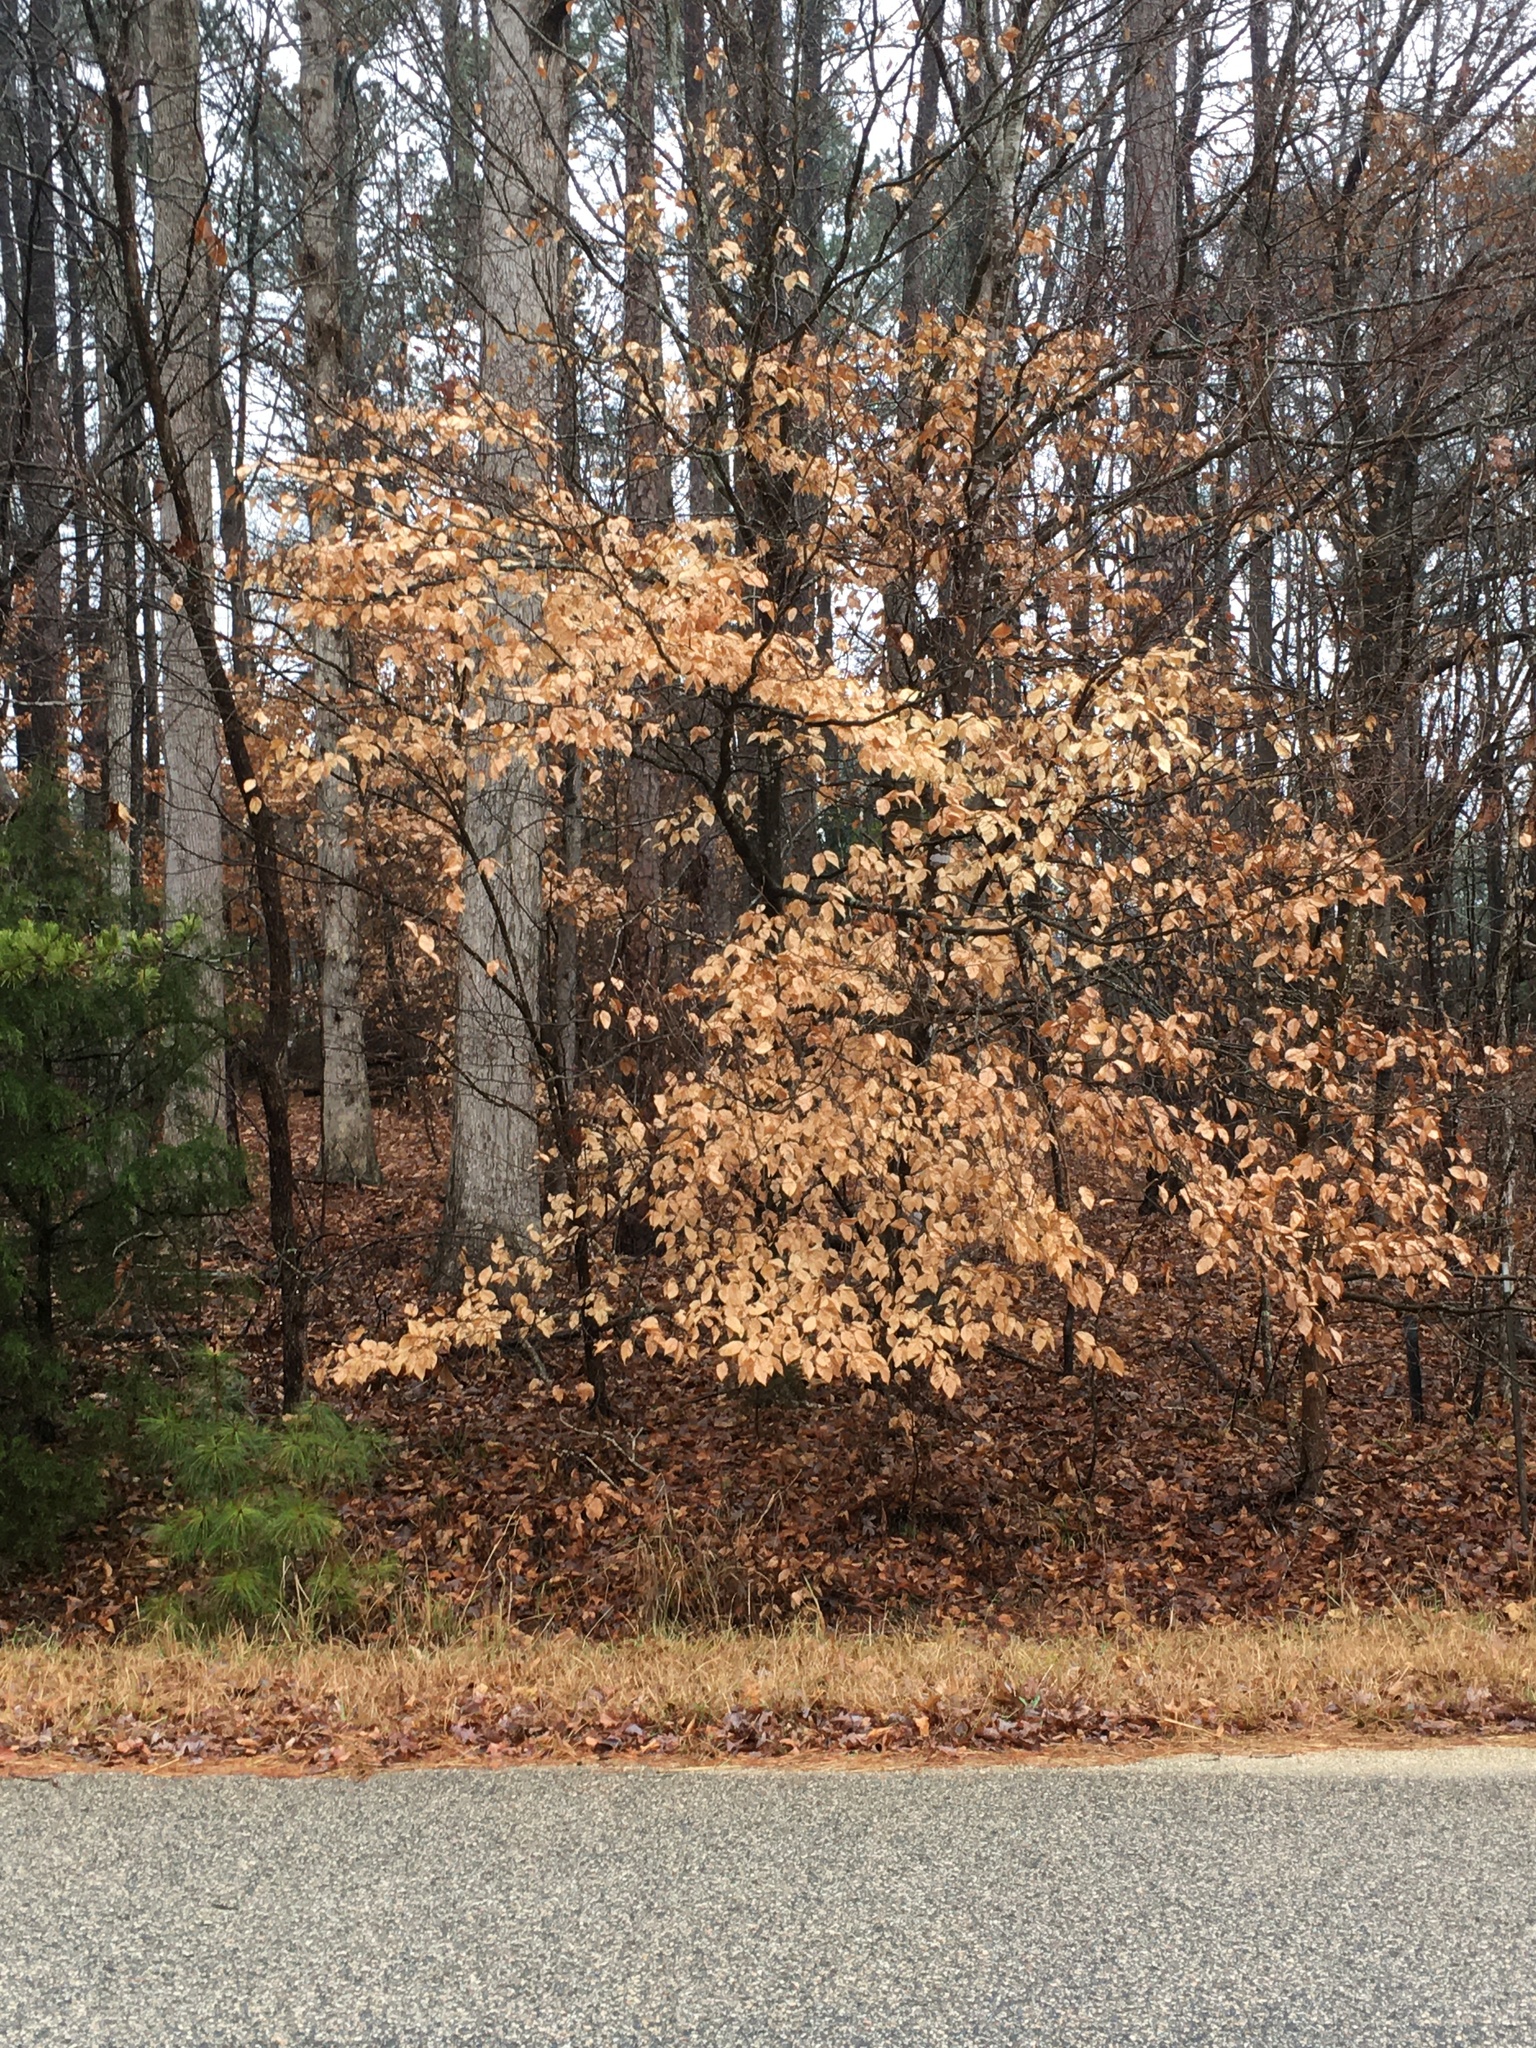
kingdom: Plantae
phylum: Tracheophyta
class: Magnoliopsida
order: Fagales
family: Fagaceae
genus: Fagus
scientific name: Fagus grandifolia
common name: American beech
